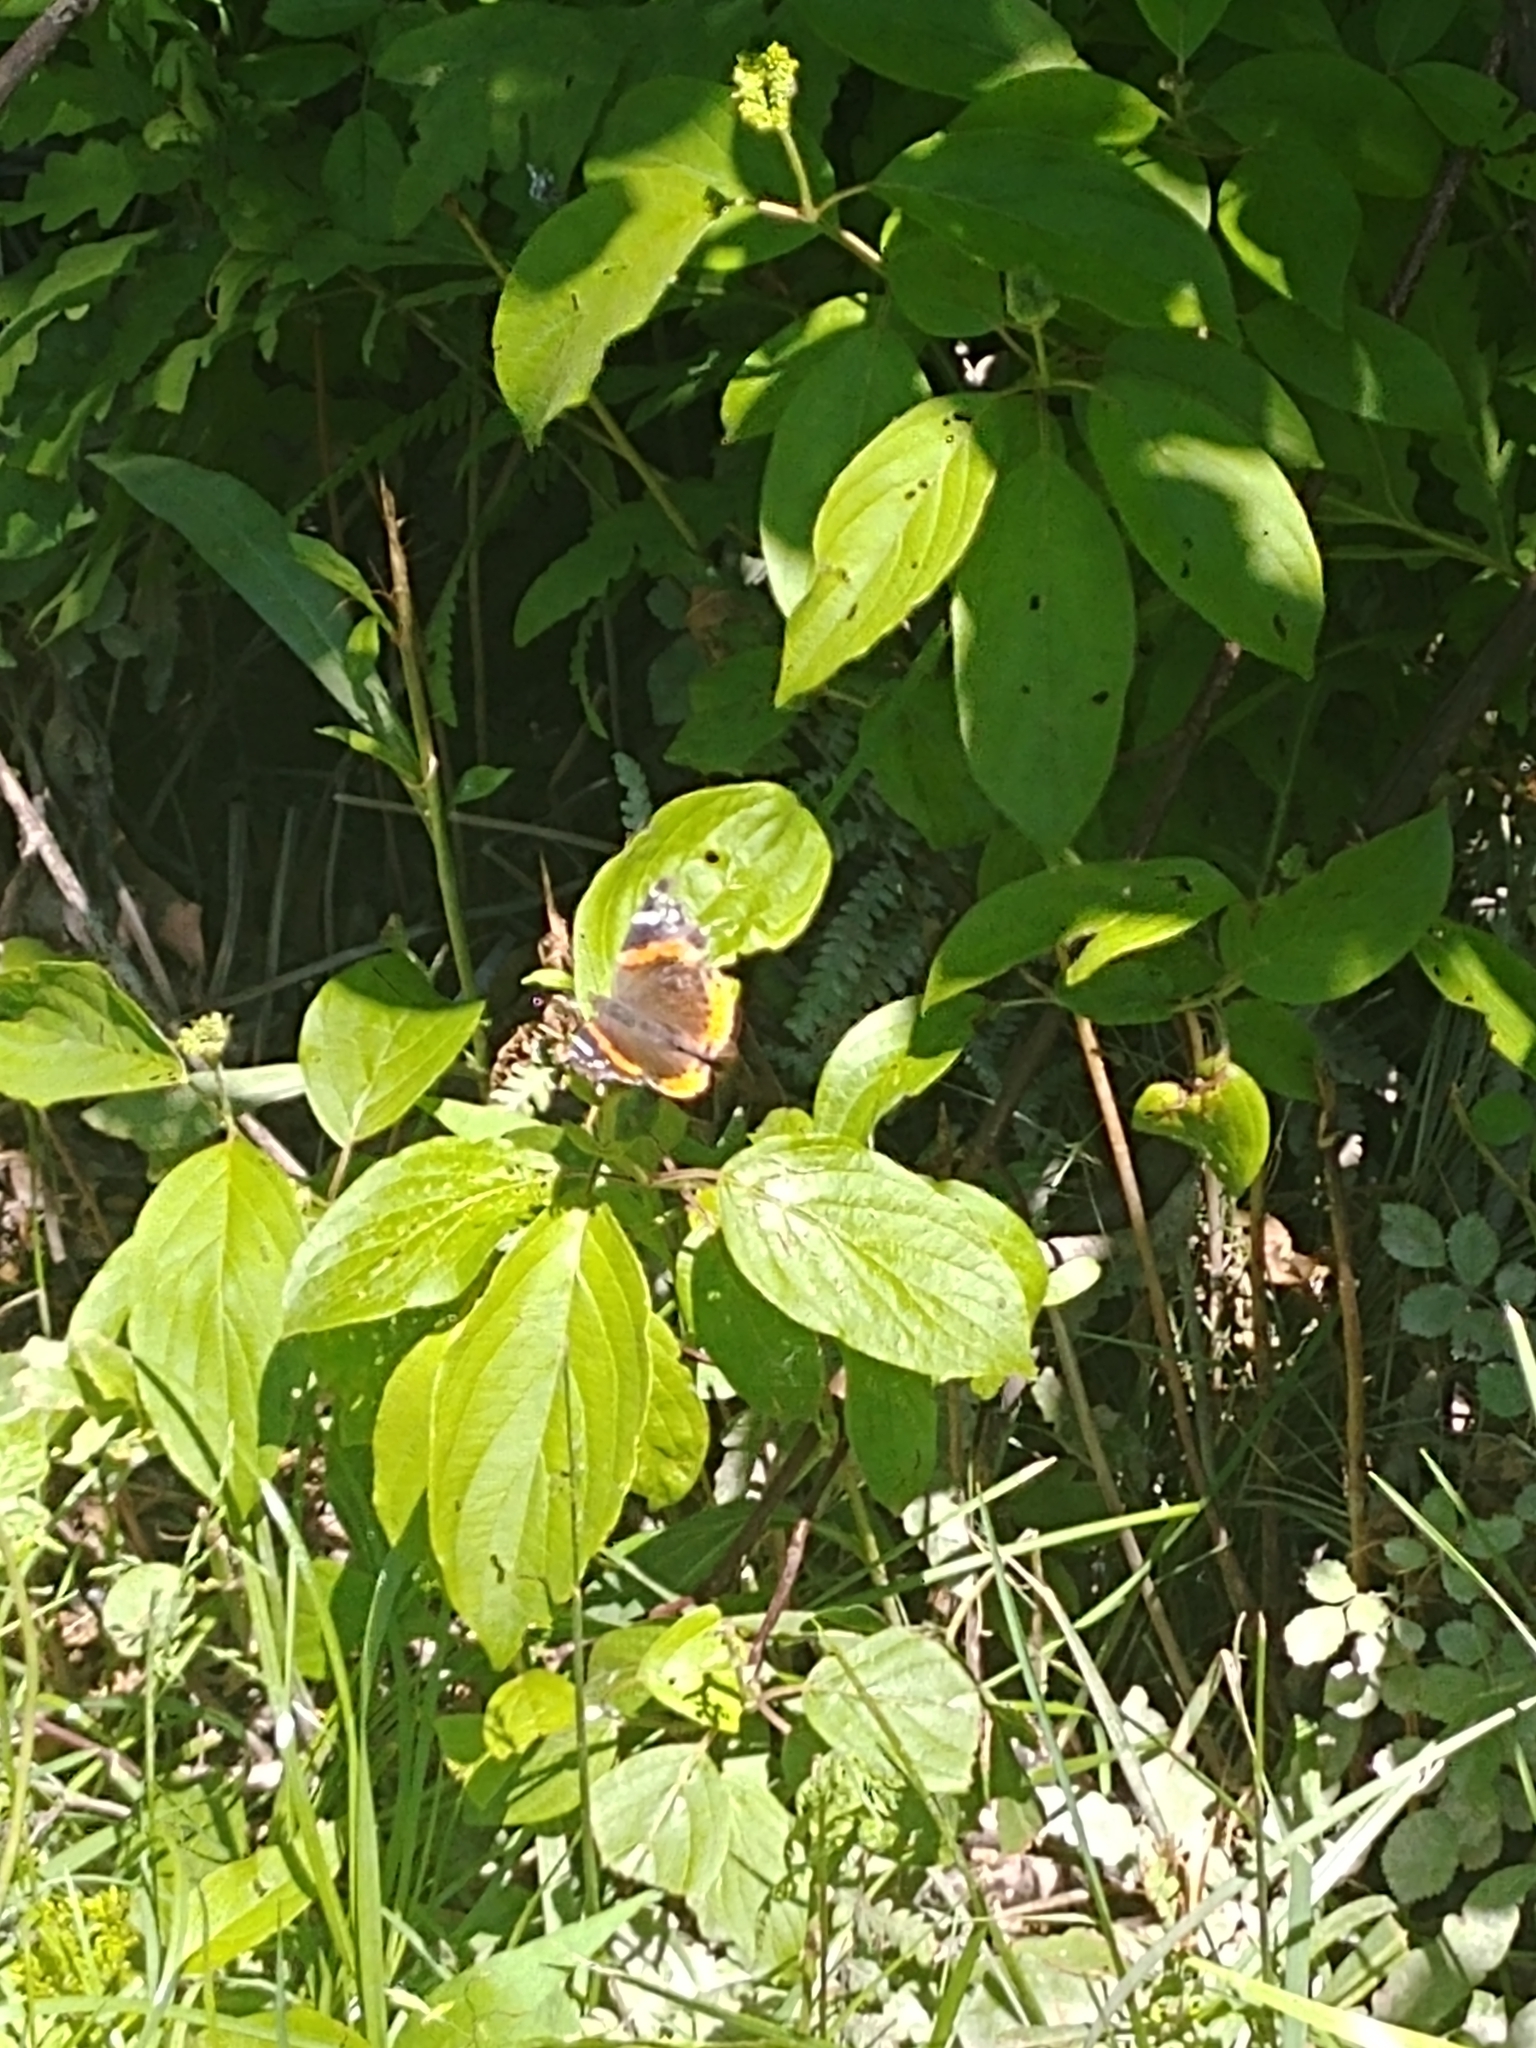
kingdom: Animalia
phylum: Arthropoda
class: Insecta
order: Lepidoptera
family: Nymphalidae
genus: Vanessa
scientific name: Vanessa atalanta
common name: Red admiral
